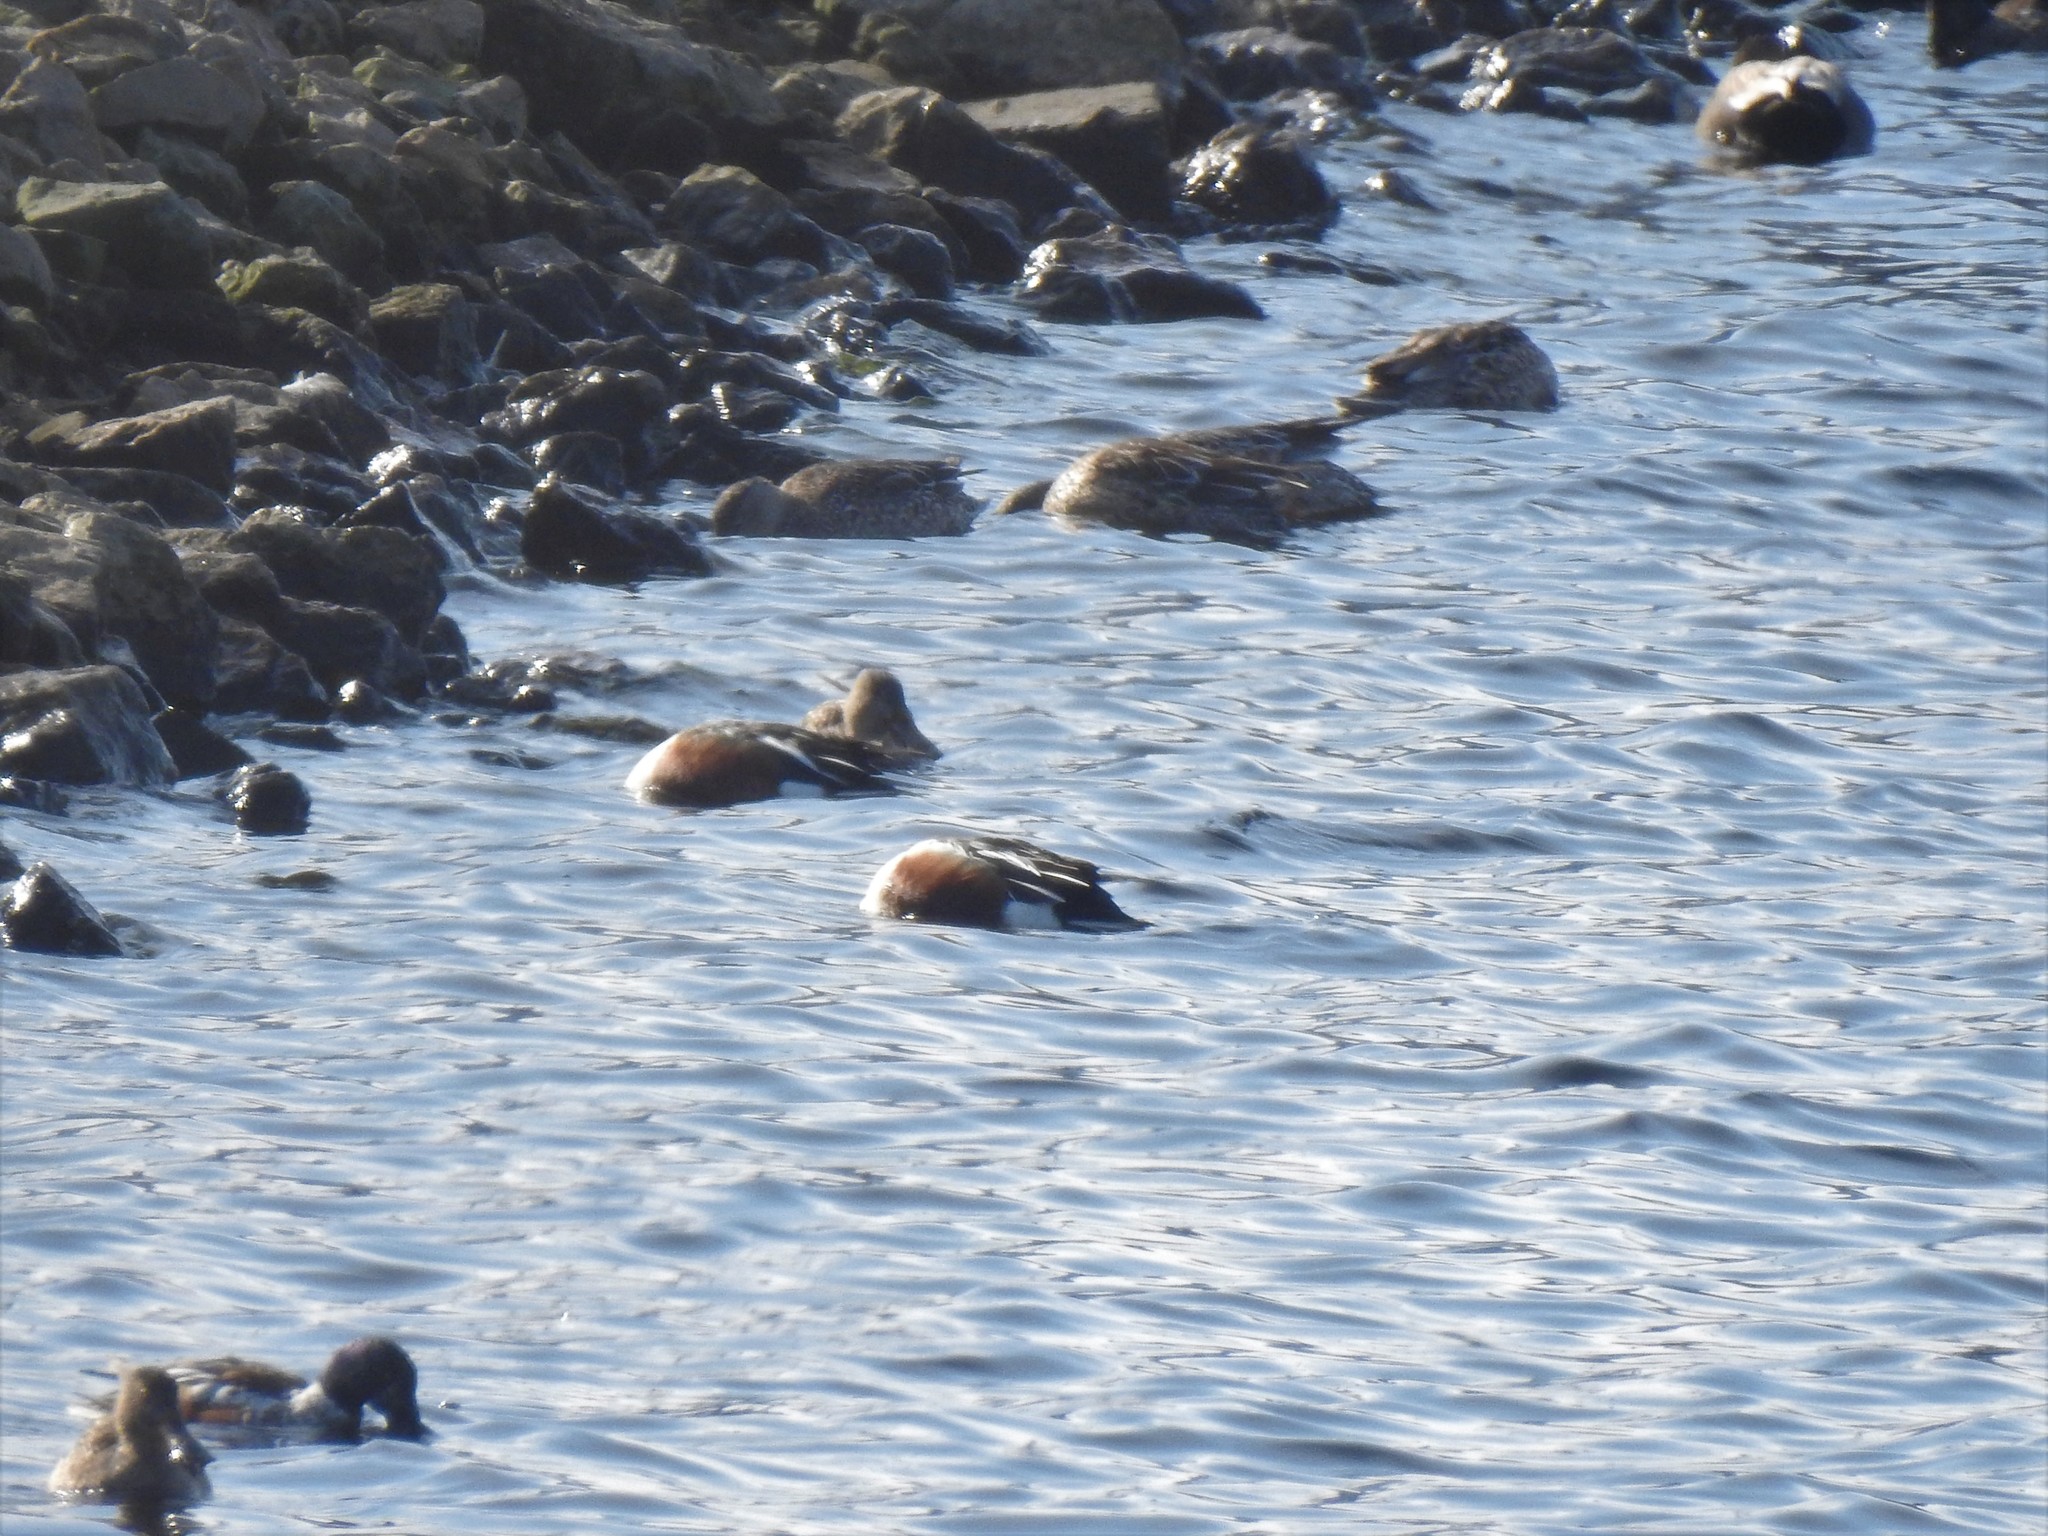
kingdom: Animalia
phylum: Chordata
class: Aves
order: Anseriformes
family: Anatidae
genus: Spatula
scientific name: Spatula clypeata
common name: Northern shoveler
